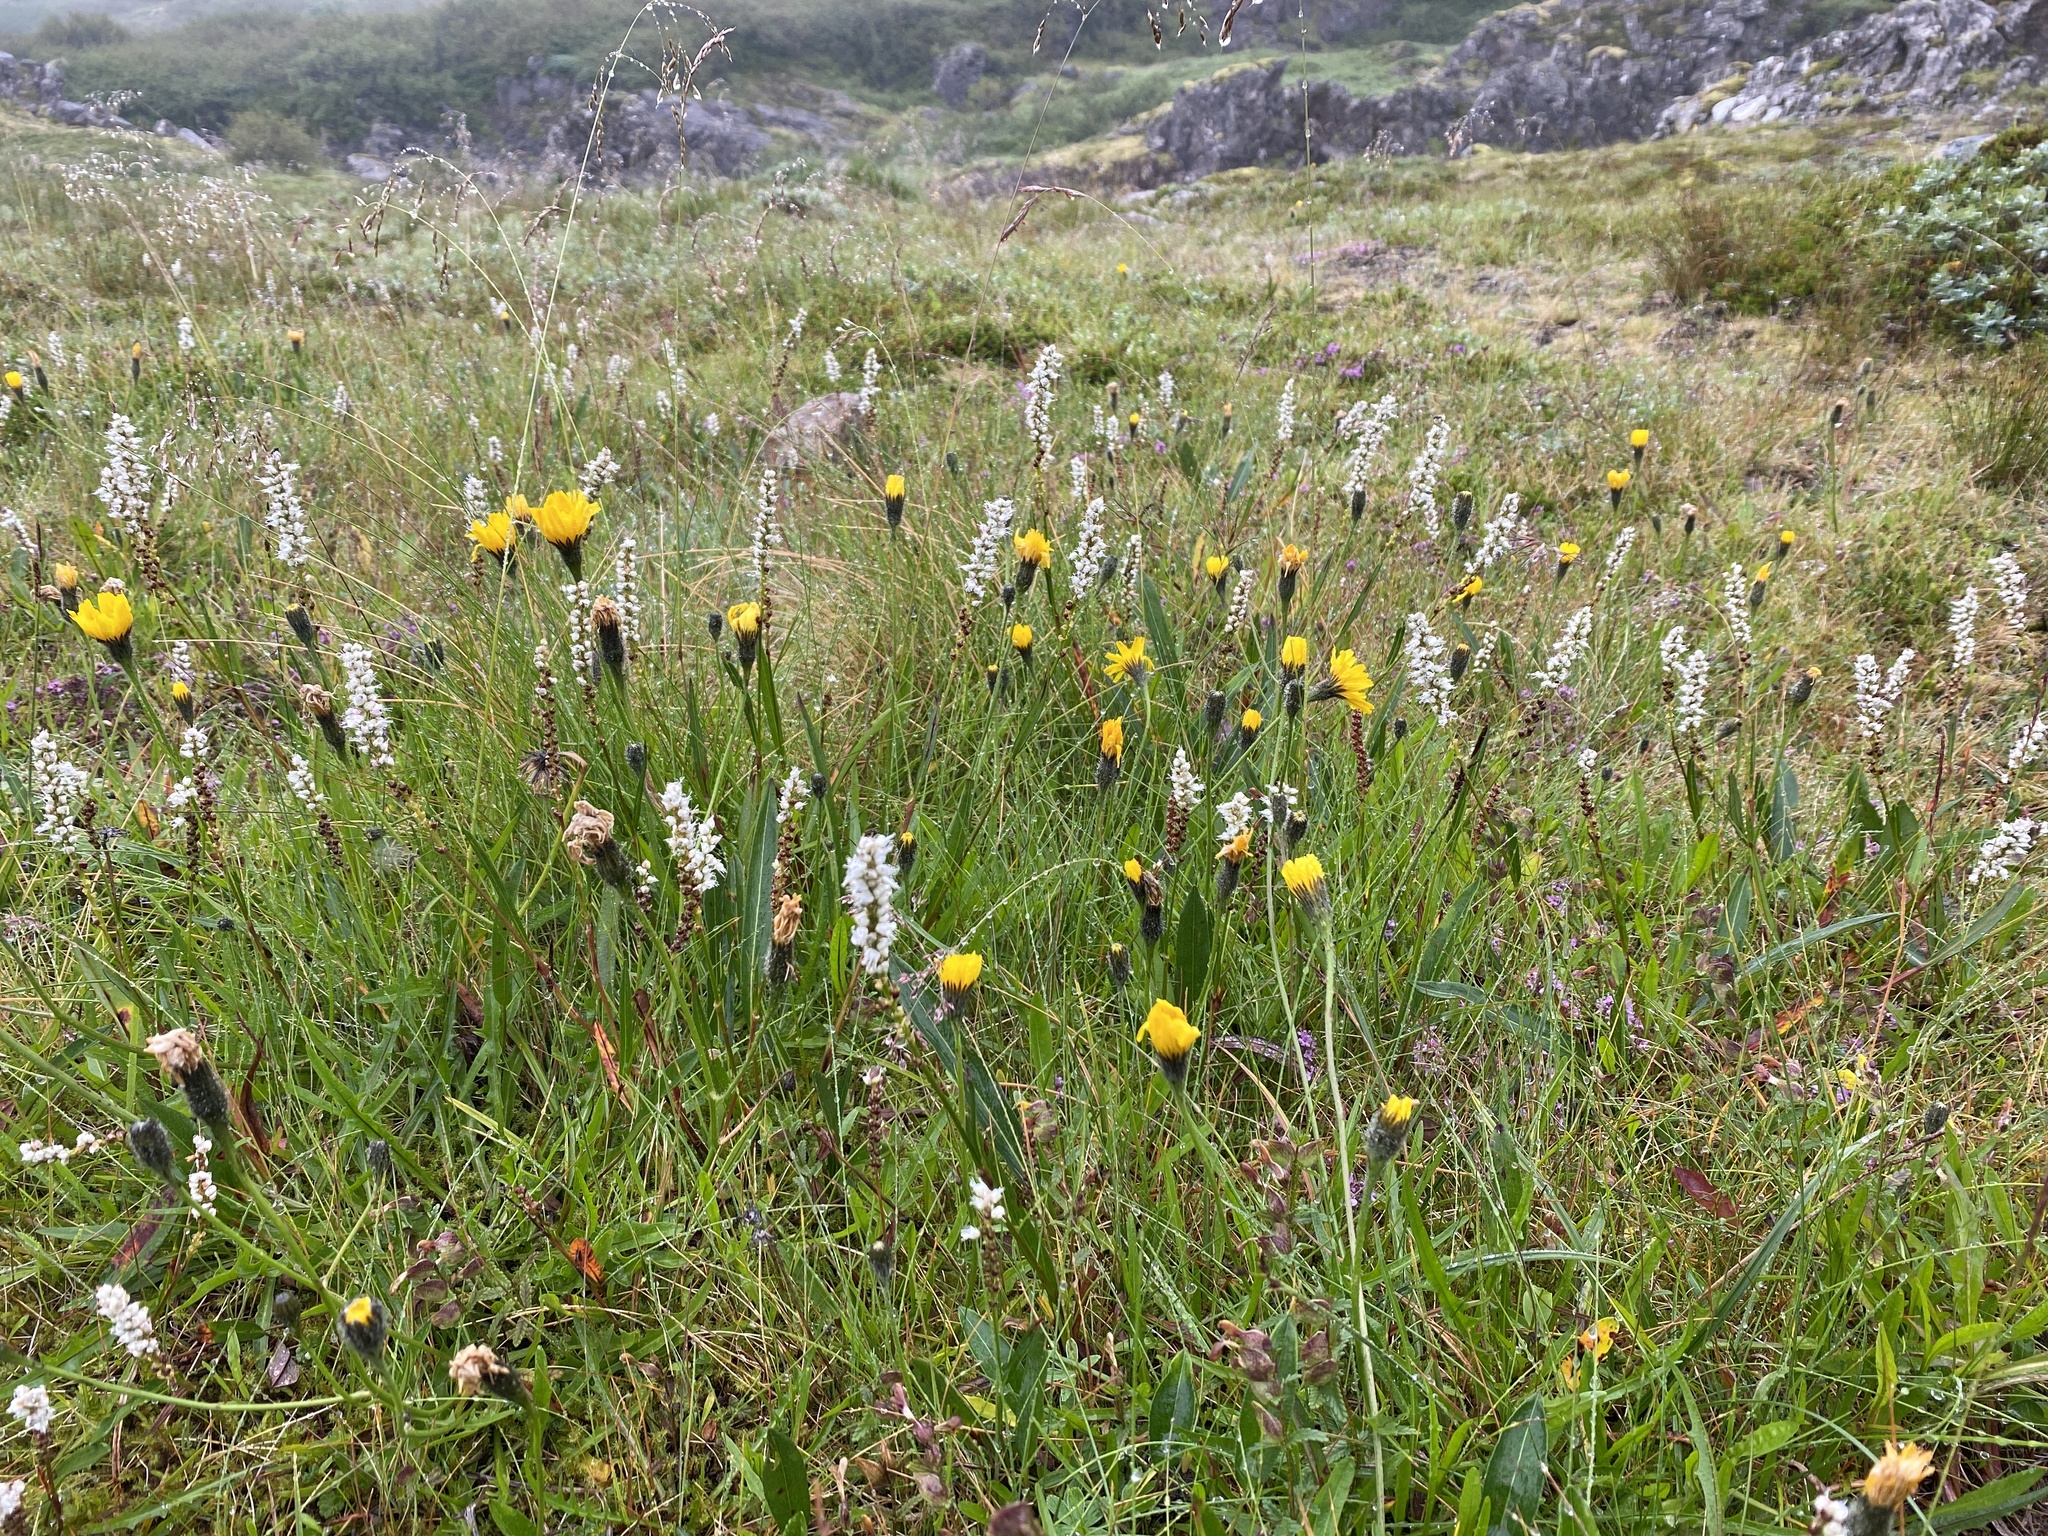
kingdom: Plantae
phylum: Tracheophyta
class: Magnoliopsida
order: Caryophyllales
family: Polygonaceae
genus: Bistorta
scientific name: Bistorta vivipara
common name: Alpine bistort
